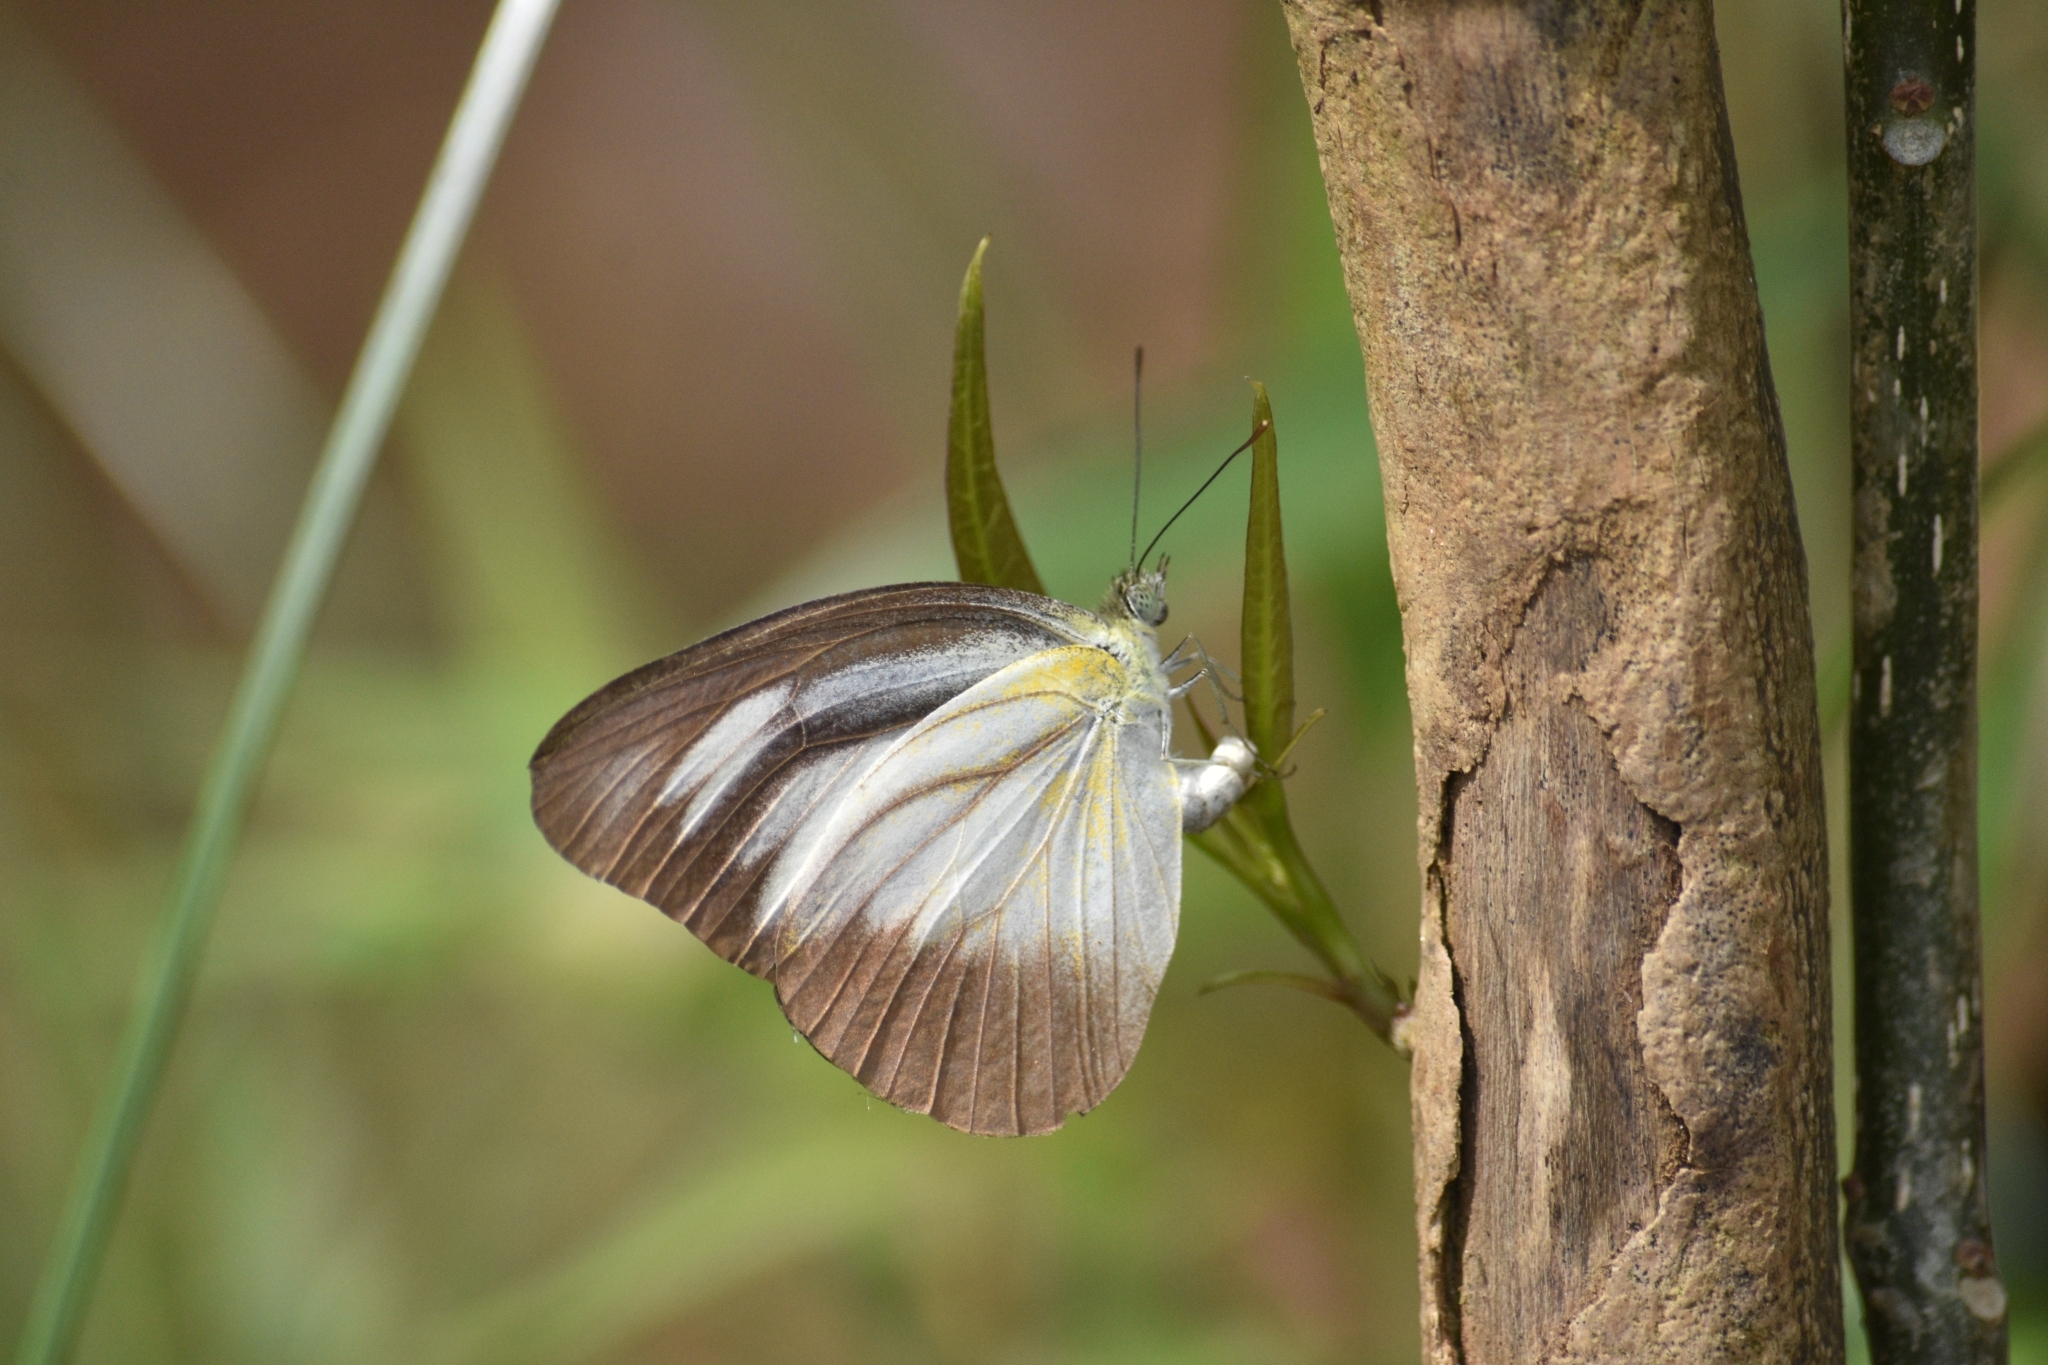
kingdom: Animalia
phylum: Arthropoda
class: Insecta
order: Lepidoptera
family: Pieridae
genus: Appias
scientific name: Appias lyncida
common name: Chocolate albatross
